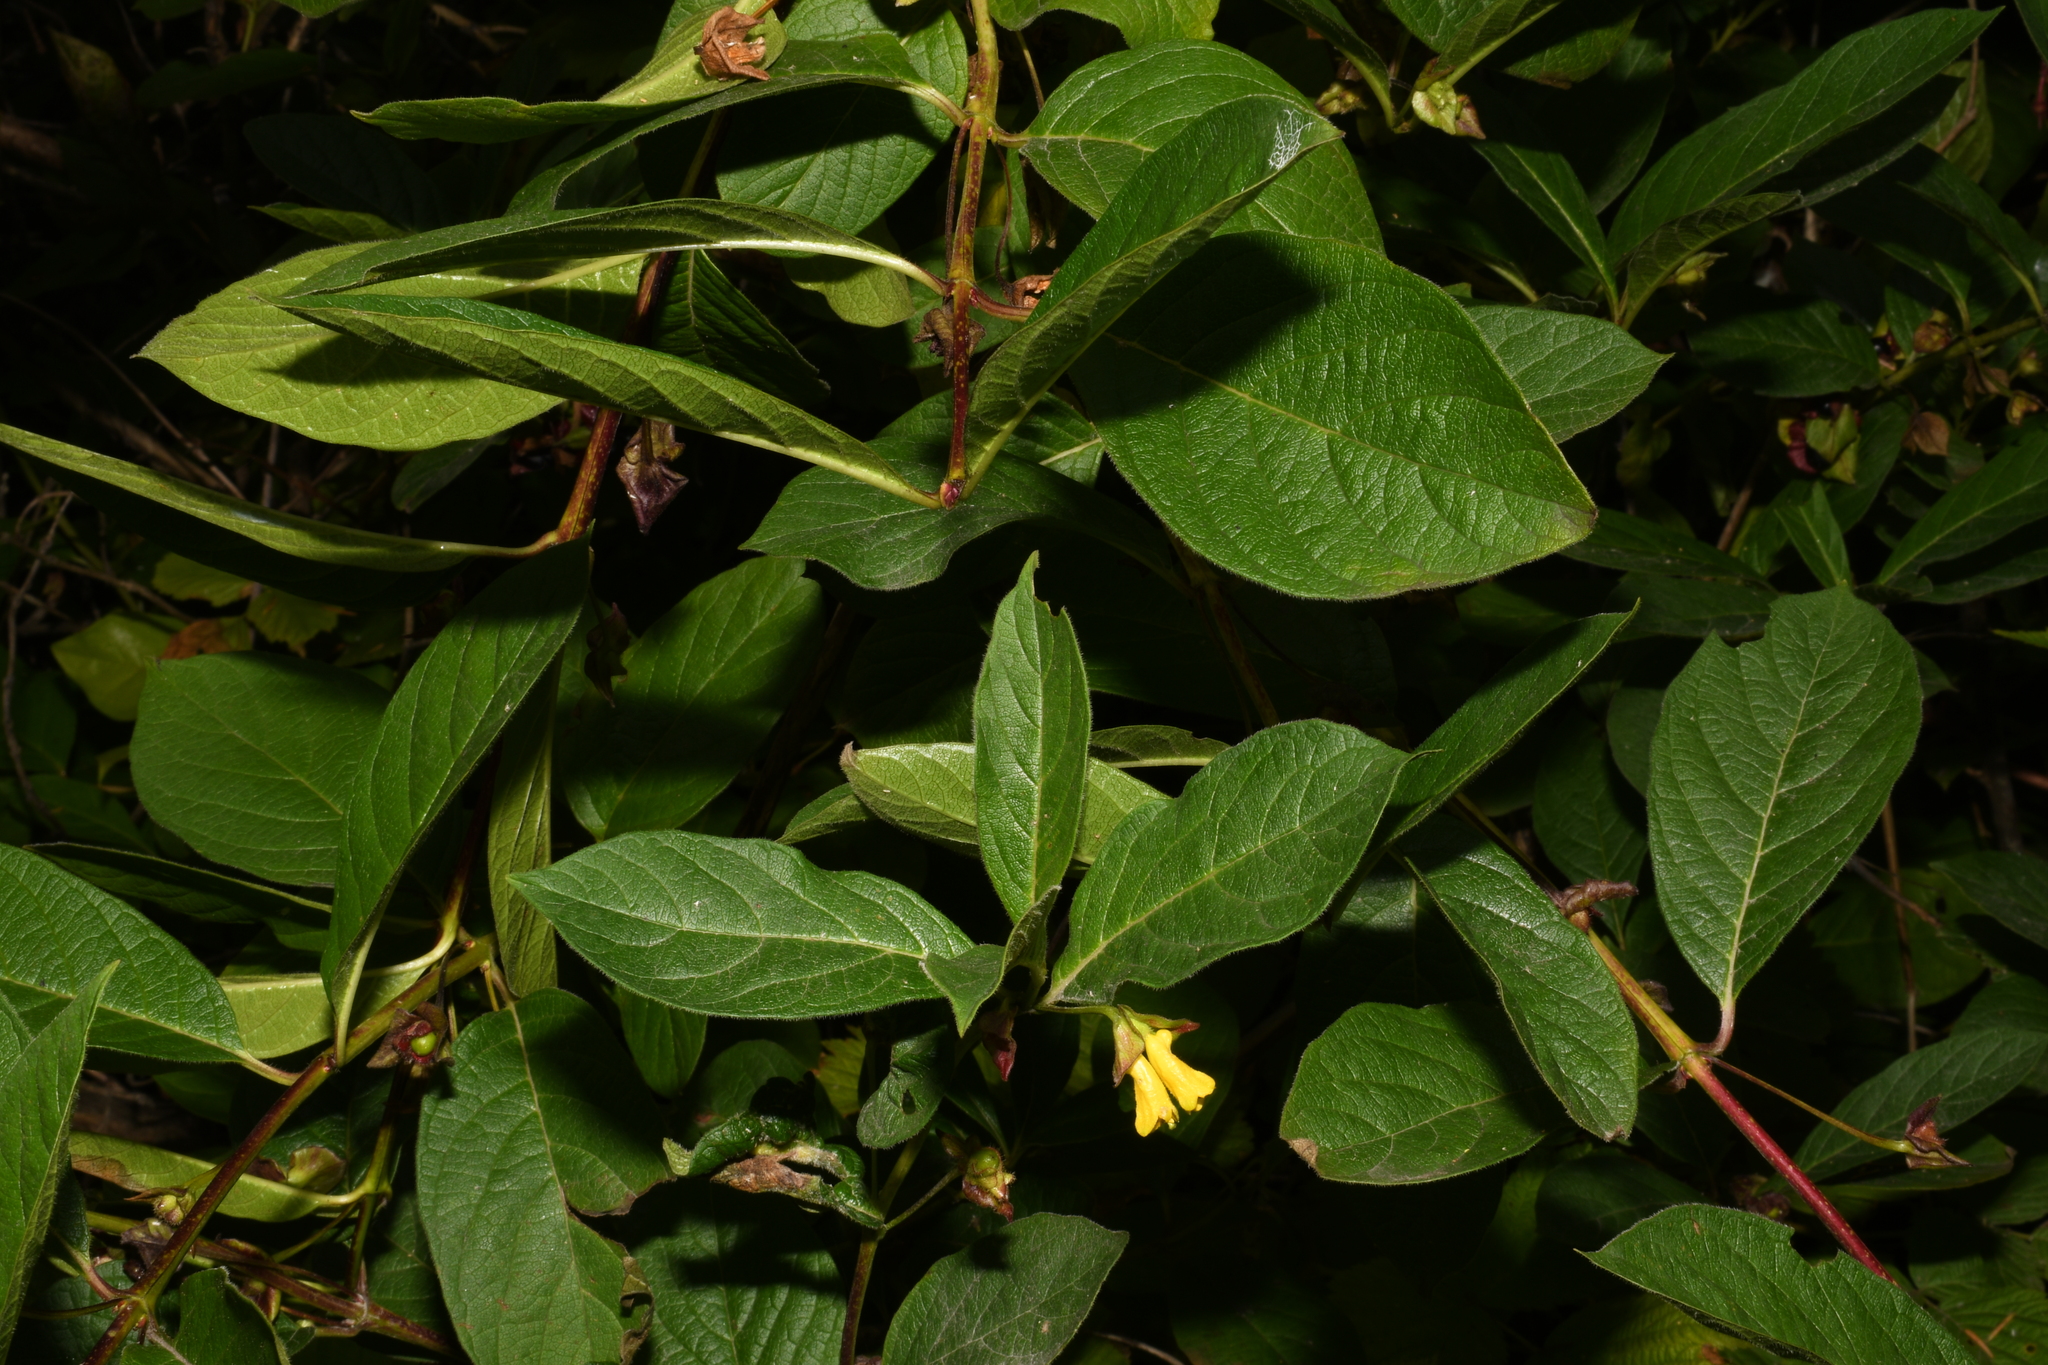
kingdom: Plantae
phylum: Tracheophyta
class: Magnoliopsida
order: Dipsacales
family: Caprifoliaceae
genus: Lonicera
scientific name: Lonicera involucrata
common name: Californian honeysuckle
